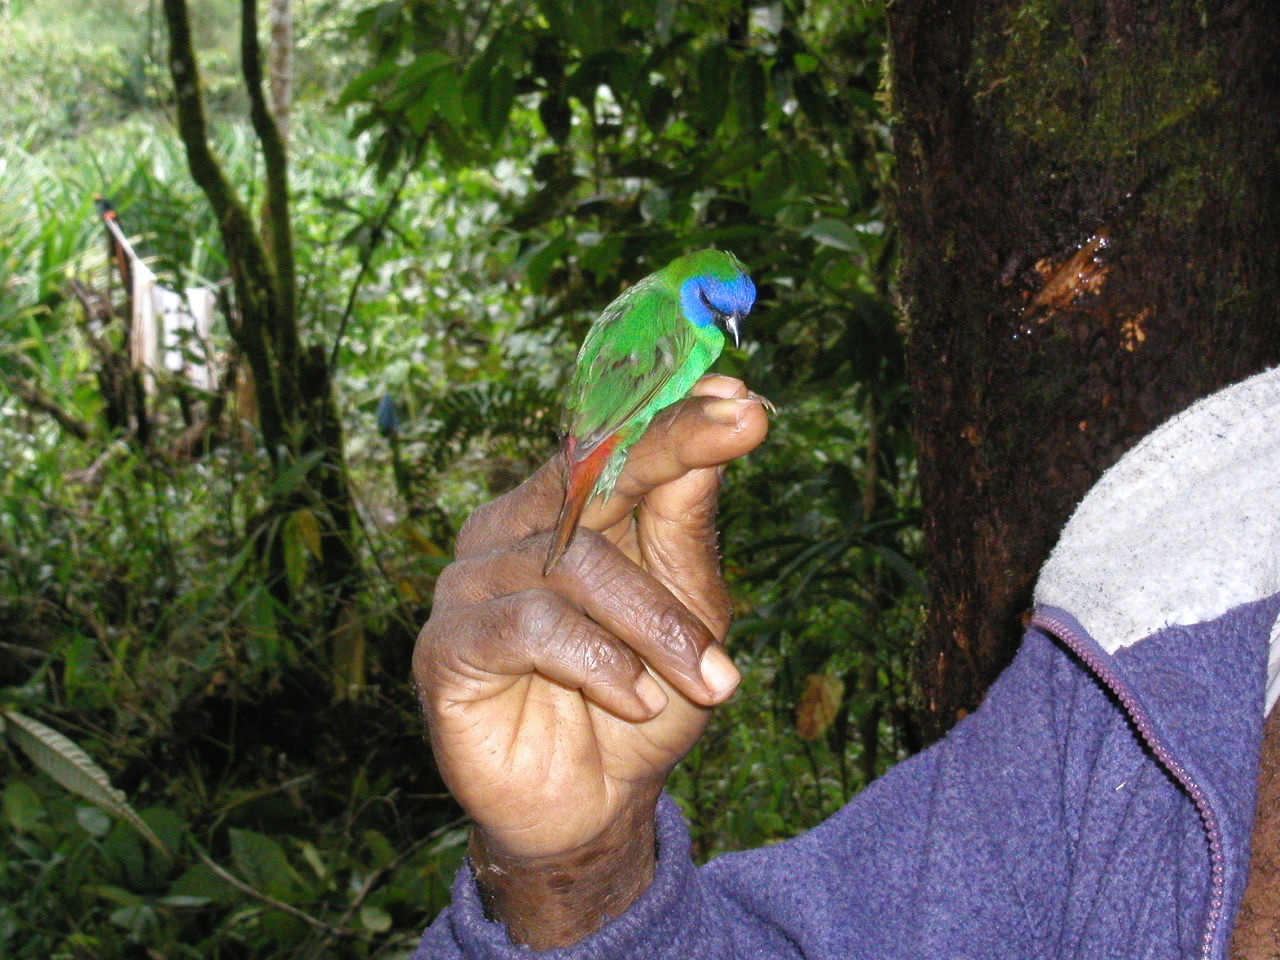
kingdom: Animalia
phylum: Chordata
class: Aves
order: Passeriformes
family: Estrildidae
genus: Erythrura
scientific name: Erythrura trichroa
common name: Blue-faced parrotfinch
